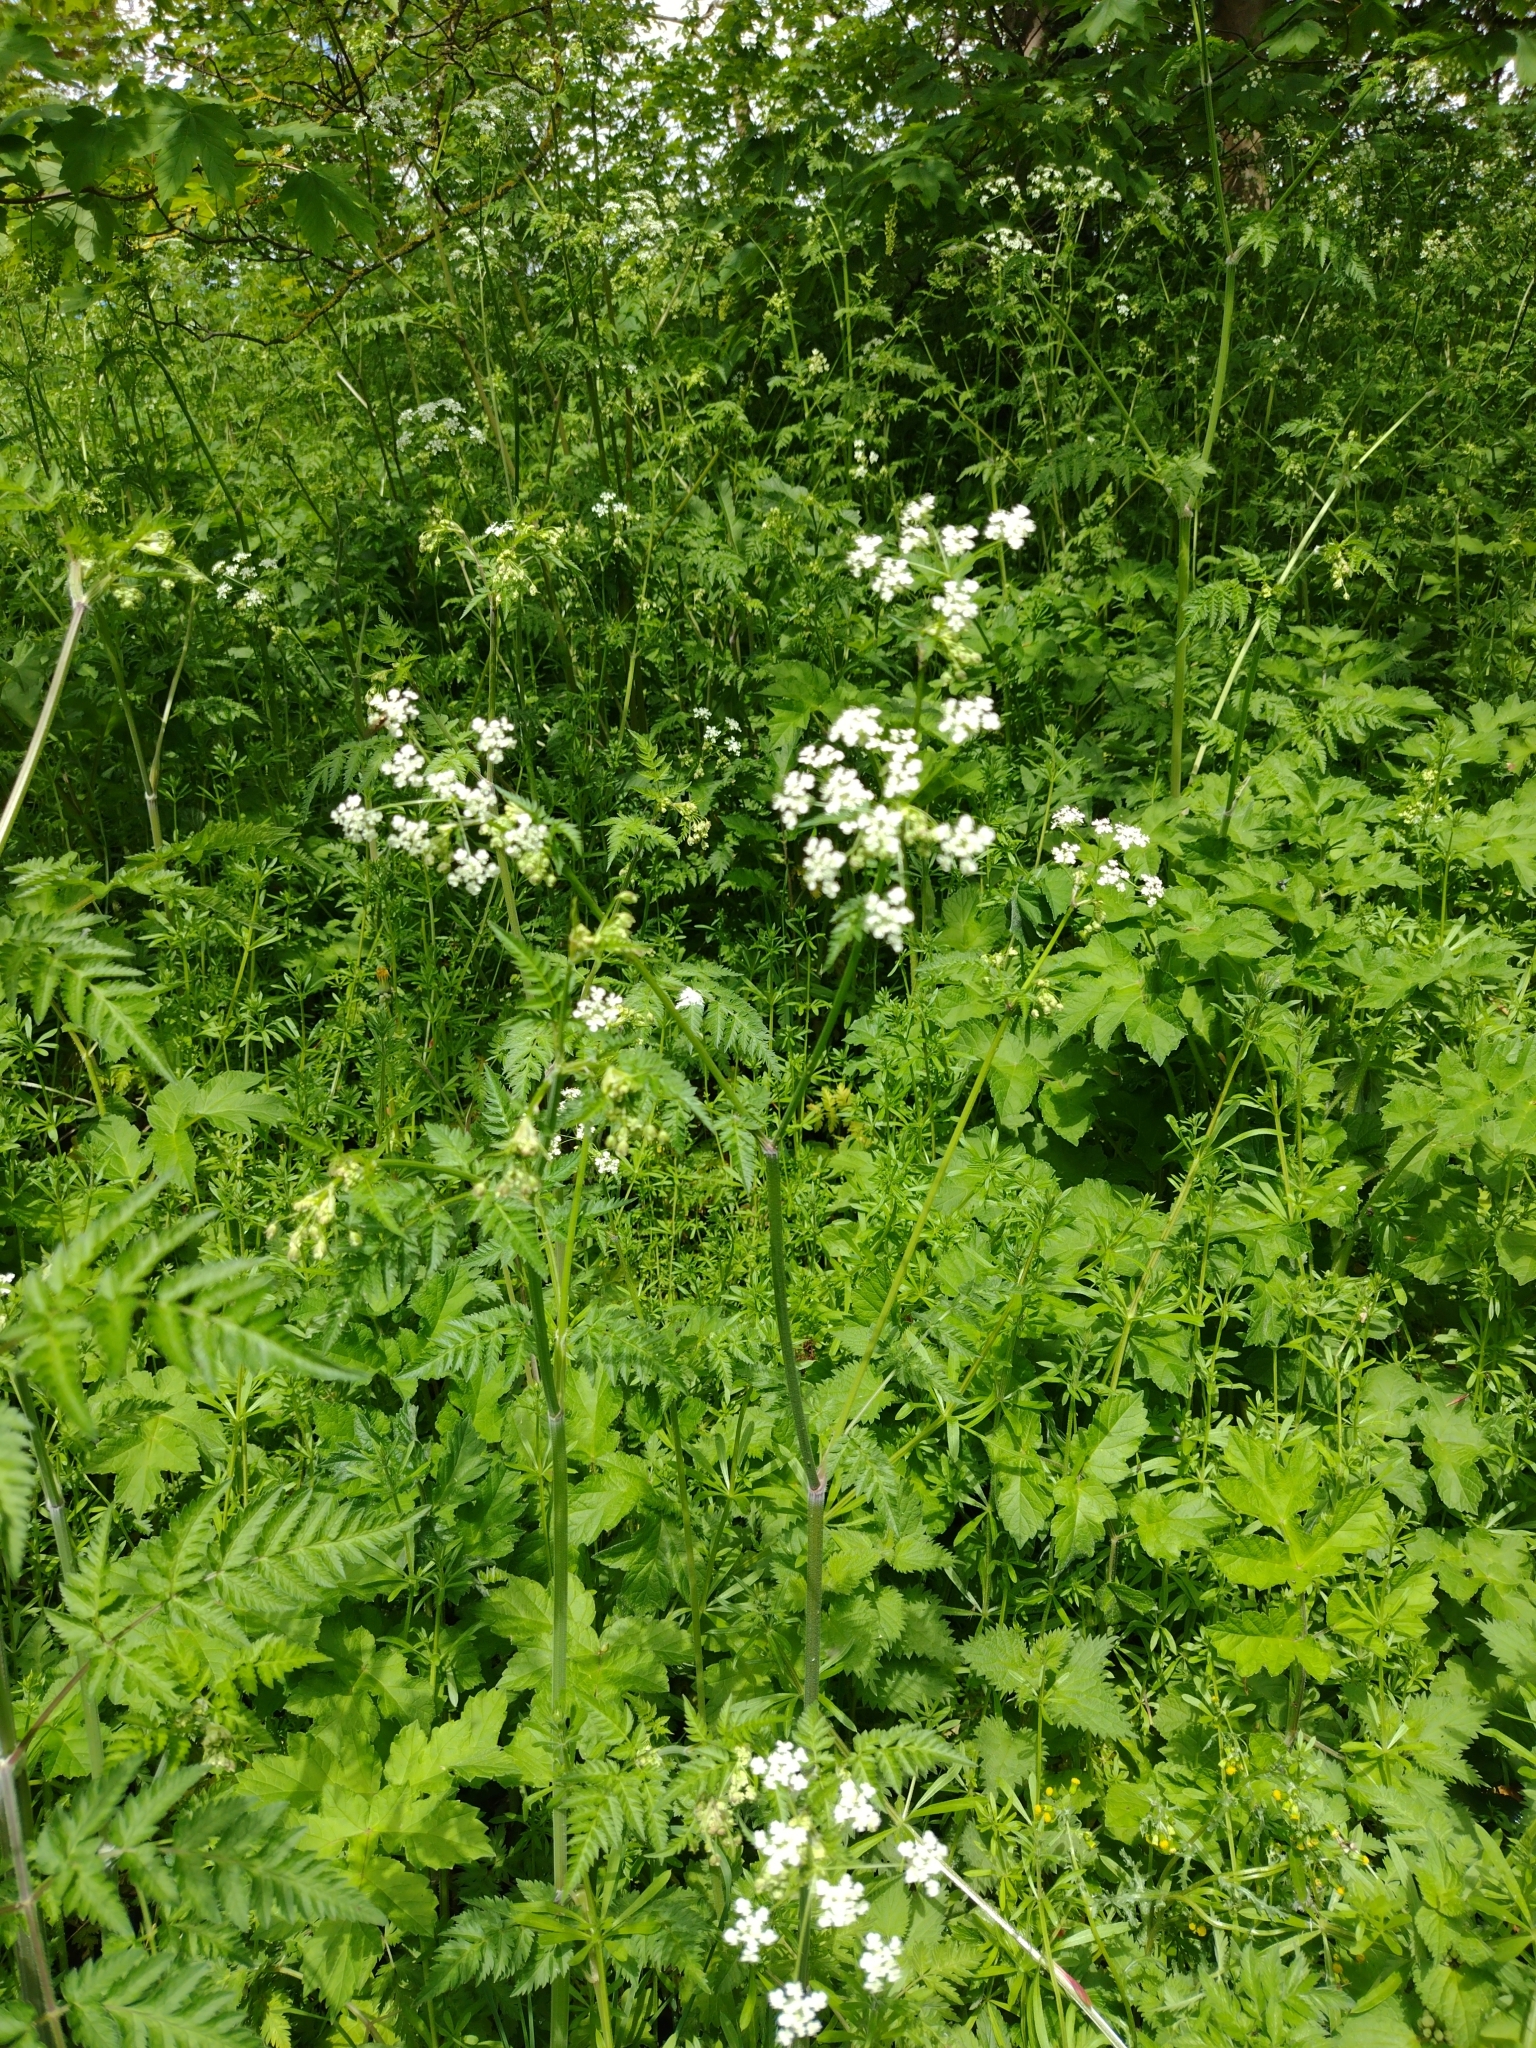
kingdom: Plantae
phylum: Tracheophyta
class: Magnoliopsida
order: Apiales
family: Apiaceae
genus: Anthriscus
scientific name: Anthriscus sylvestris
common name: Cow parsley
